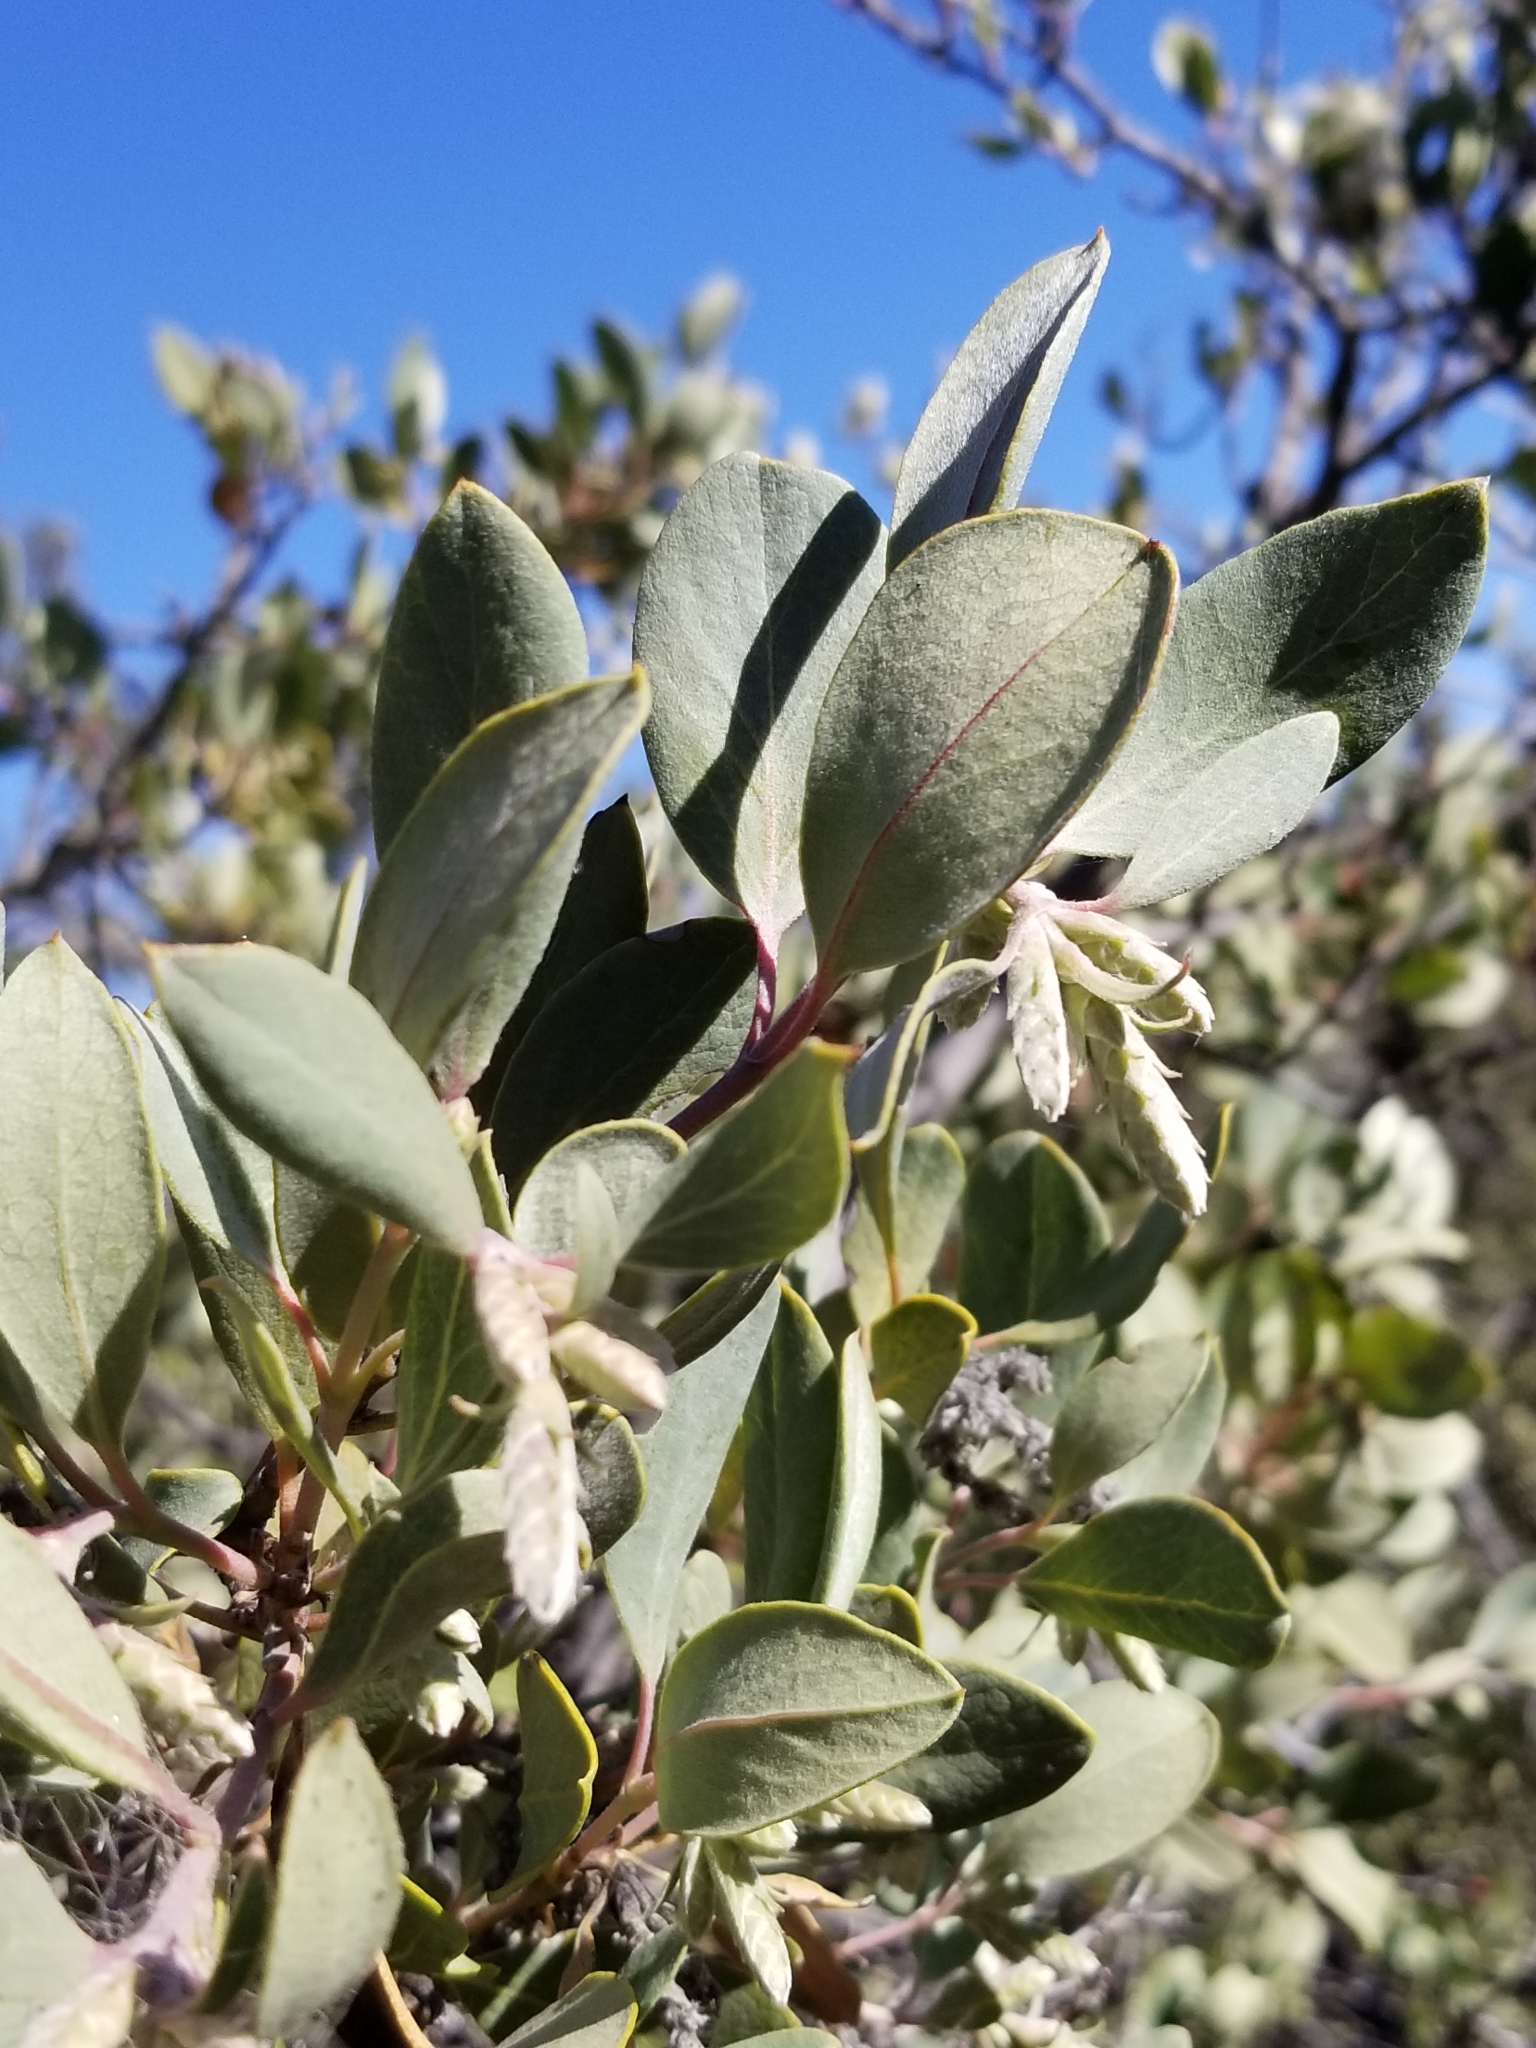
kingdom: Plantae
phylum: Tracheophyta
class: Magnoliopsida
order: Garryales
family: Garryaceae
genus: Garrya
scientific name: Garrya flavescens
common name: Ashy silk-tassel
